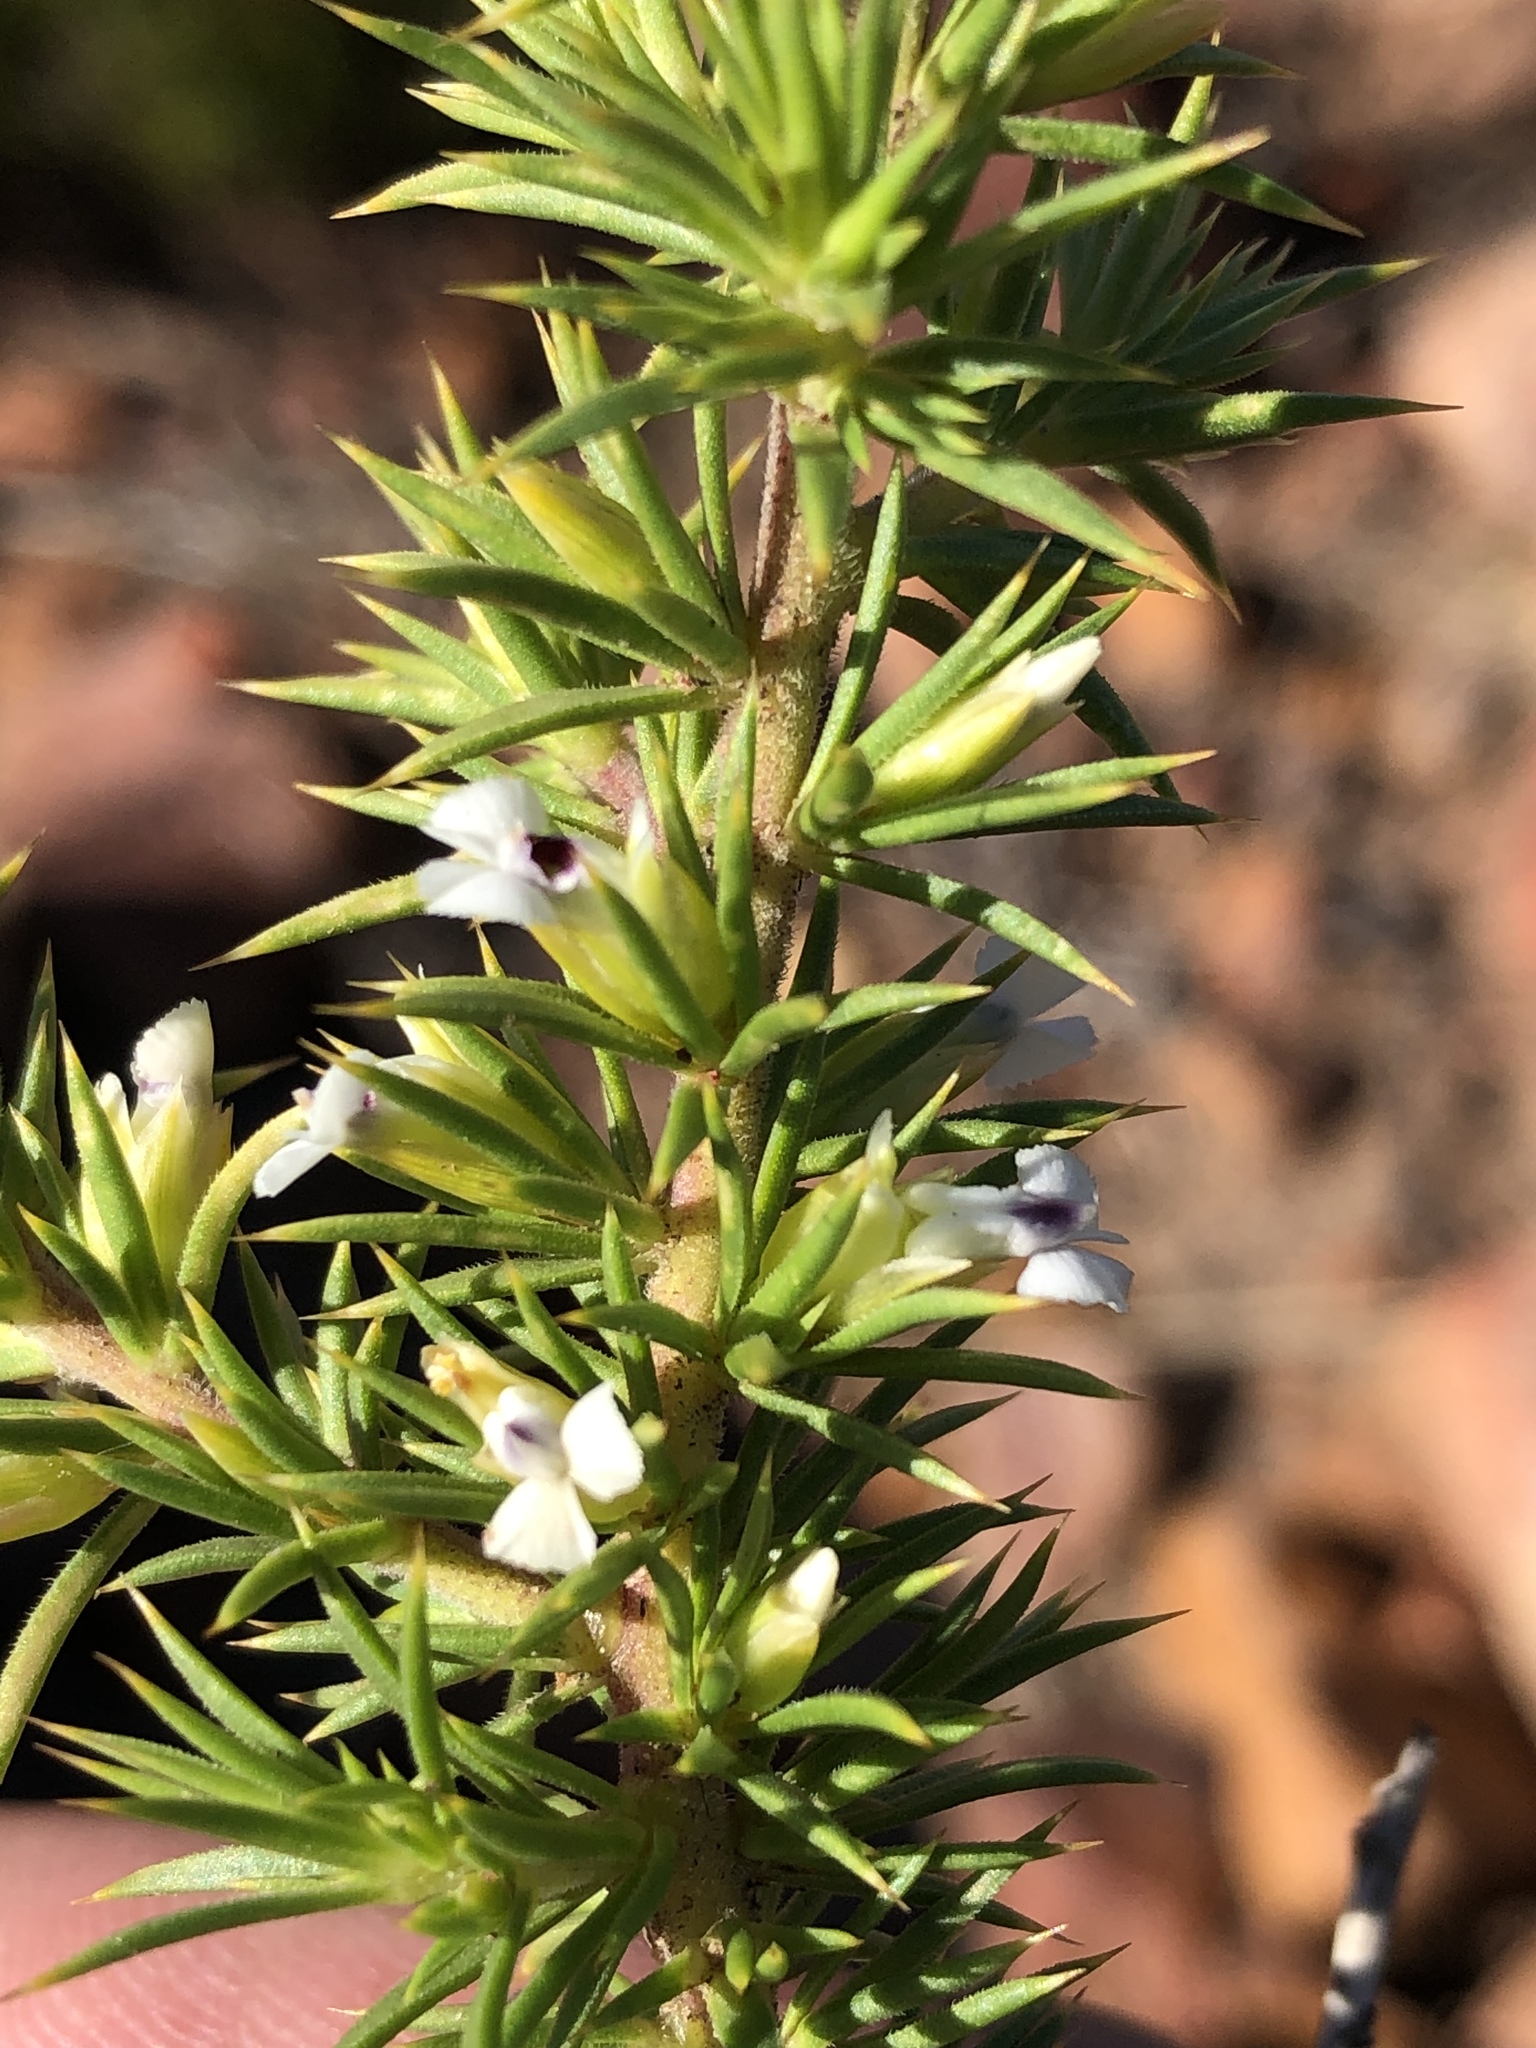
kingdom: Plantae
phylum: Tracheophyta
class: Magnoliopsida
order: Fabales
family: Polygalaceae
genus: Muraltia
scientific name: Muraltia ericifolia
